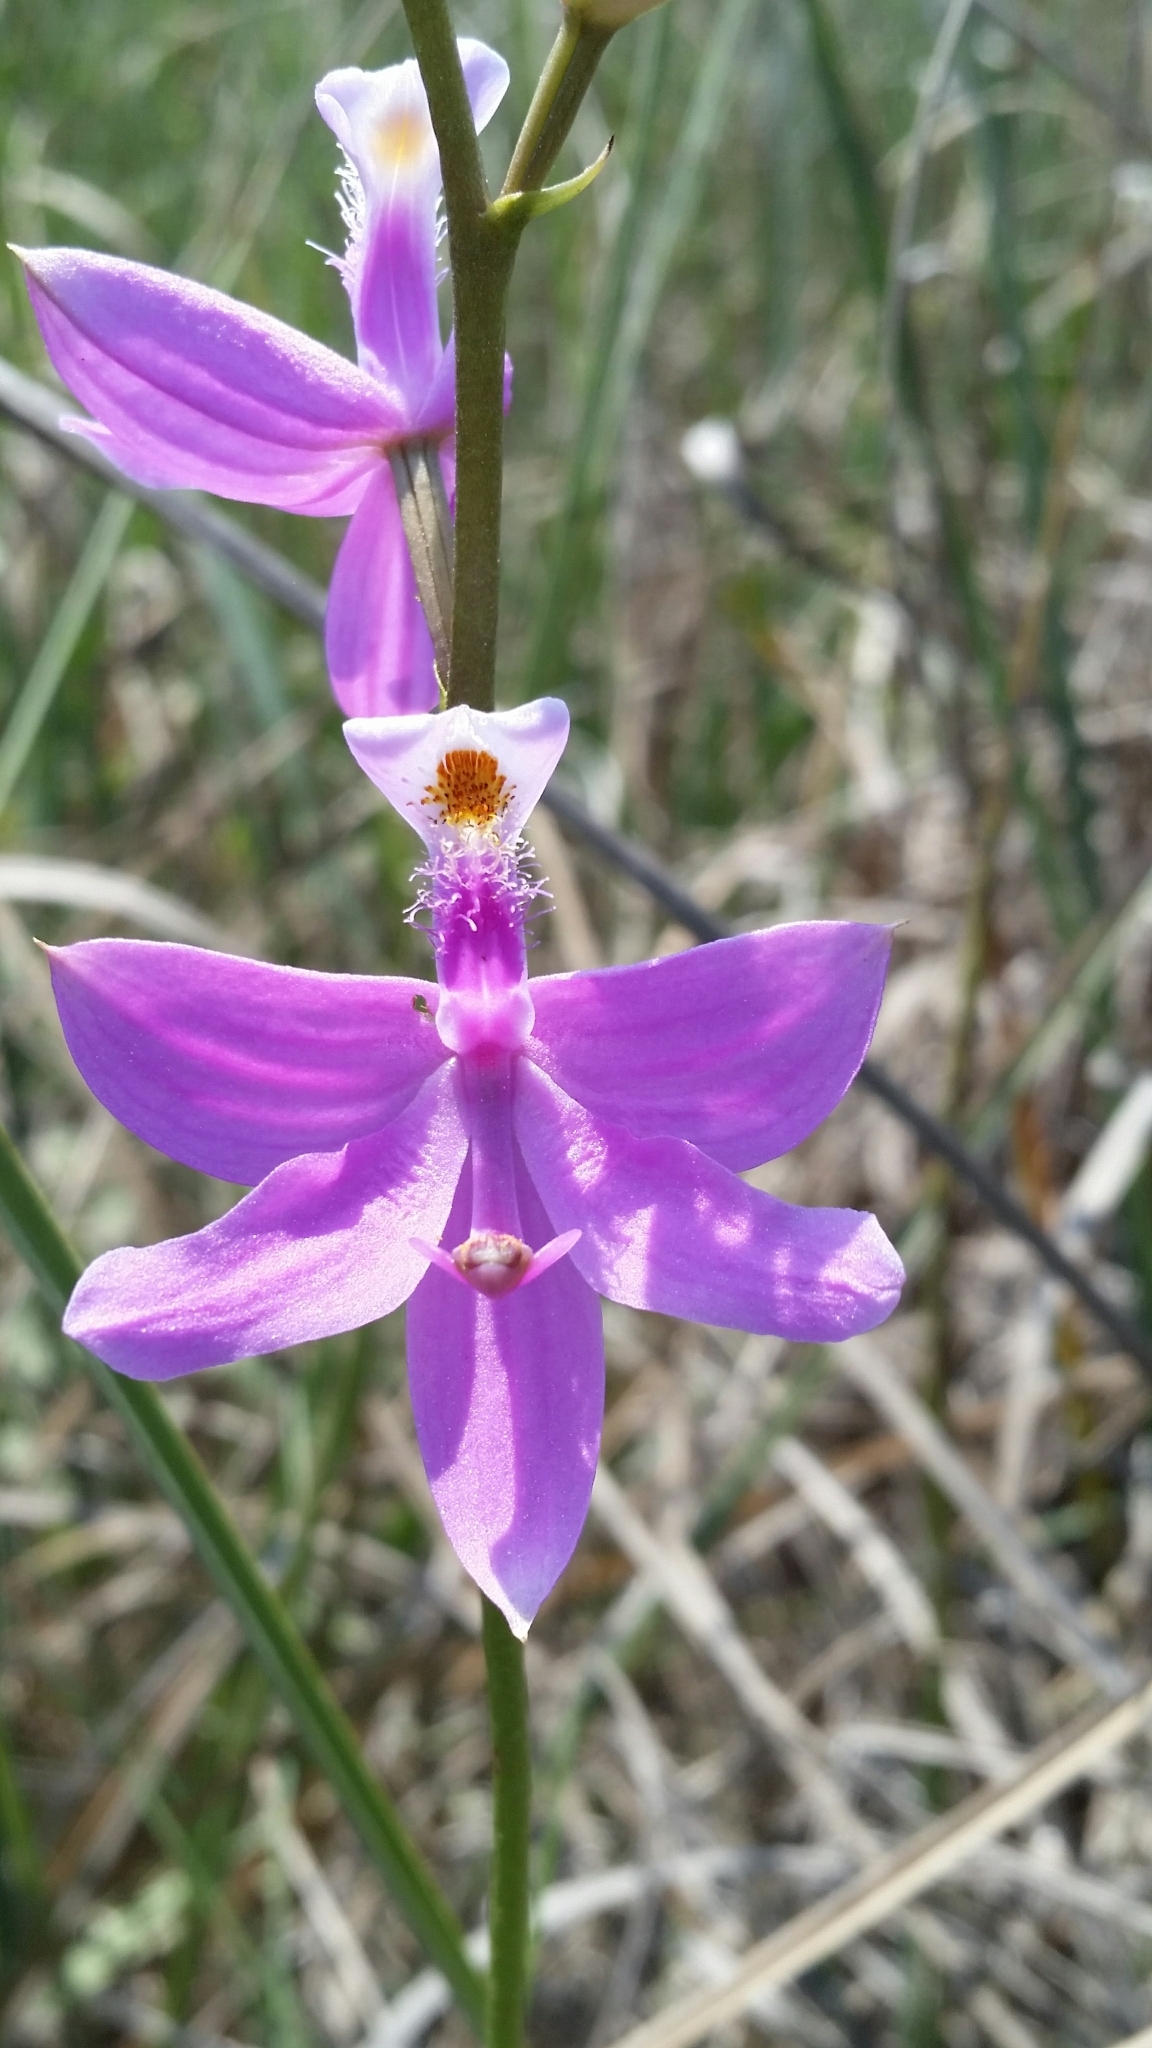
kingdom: Plantae
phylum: Tracheophyta
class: Liliopsida
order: Asparagales
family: Orchidaceae
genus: Calopogon
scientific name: Calopogon tuberosus
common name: Grass-pink
